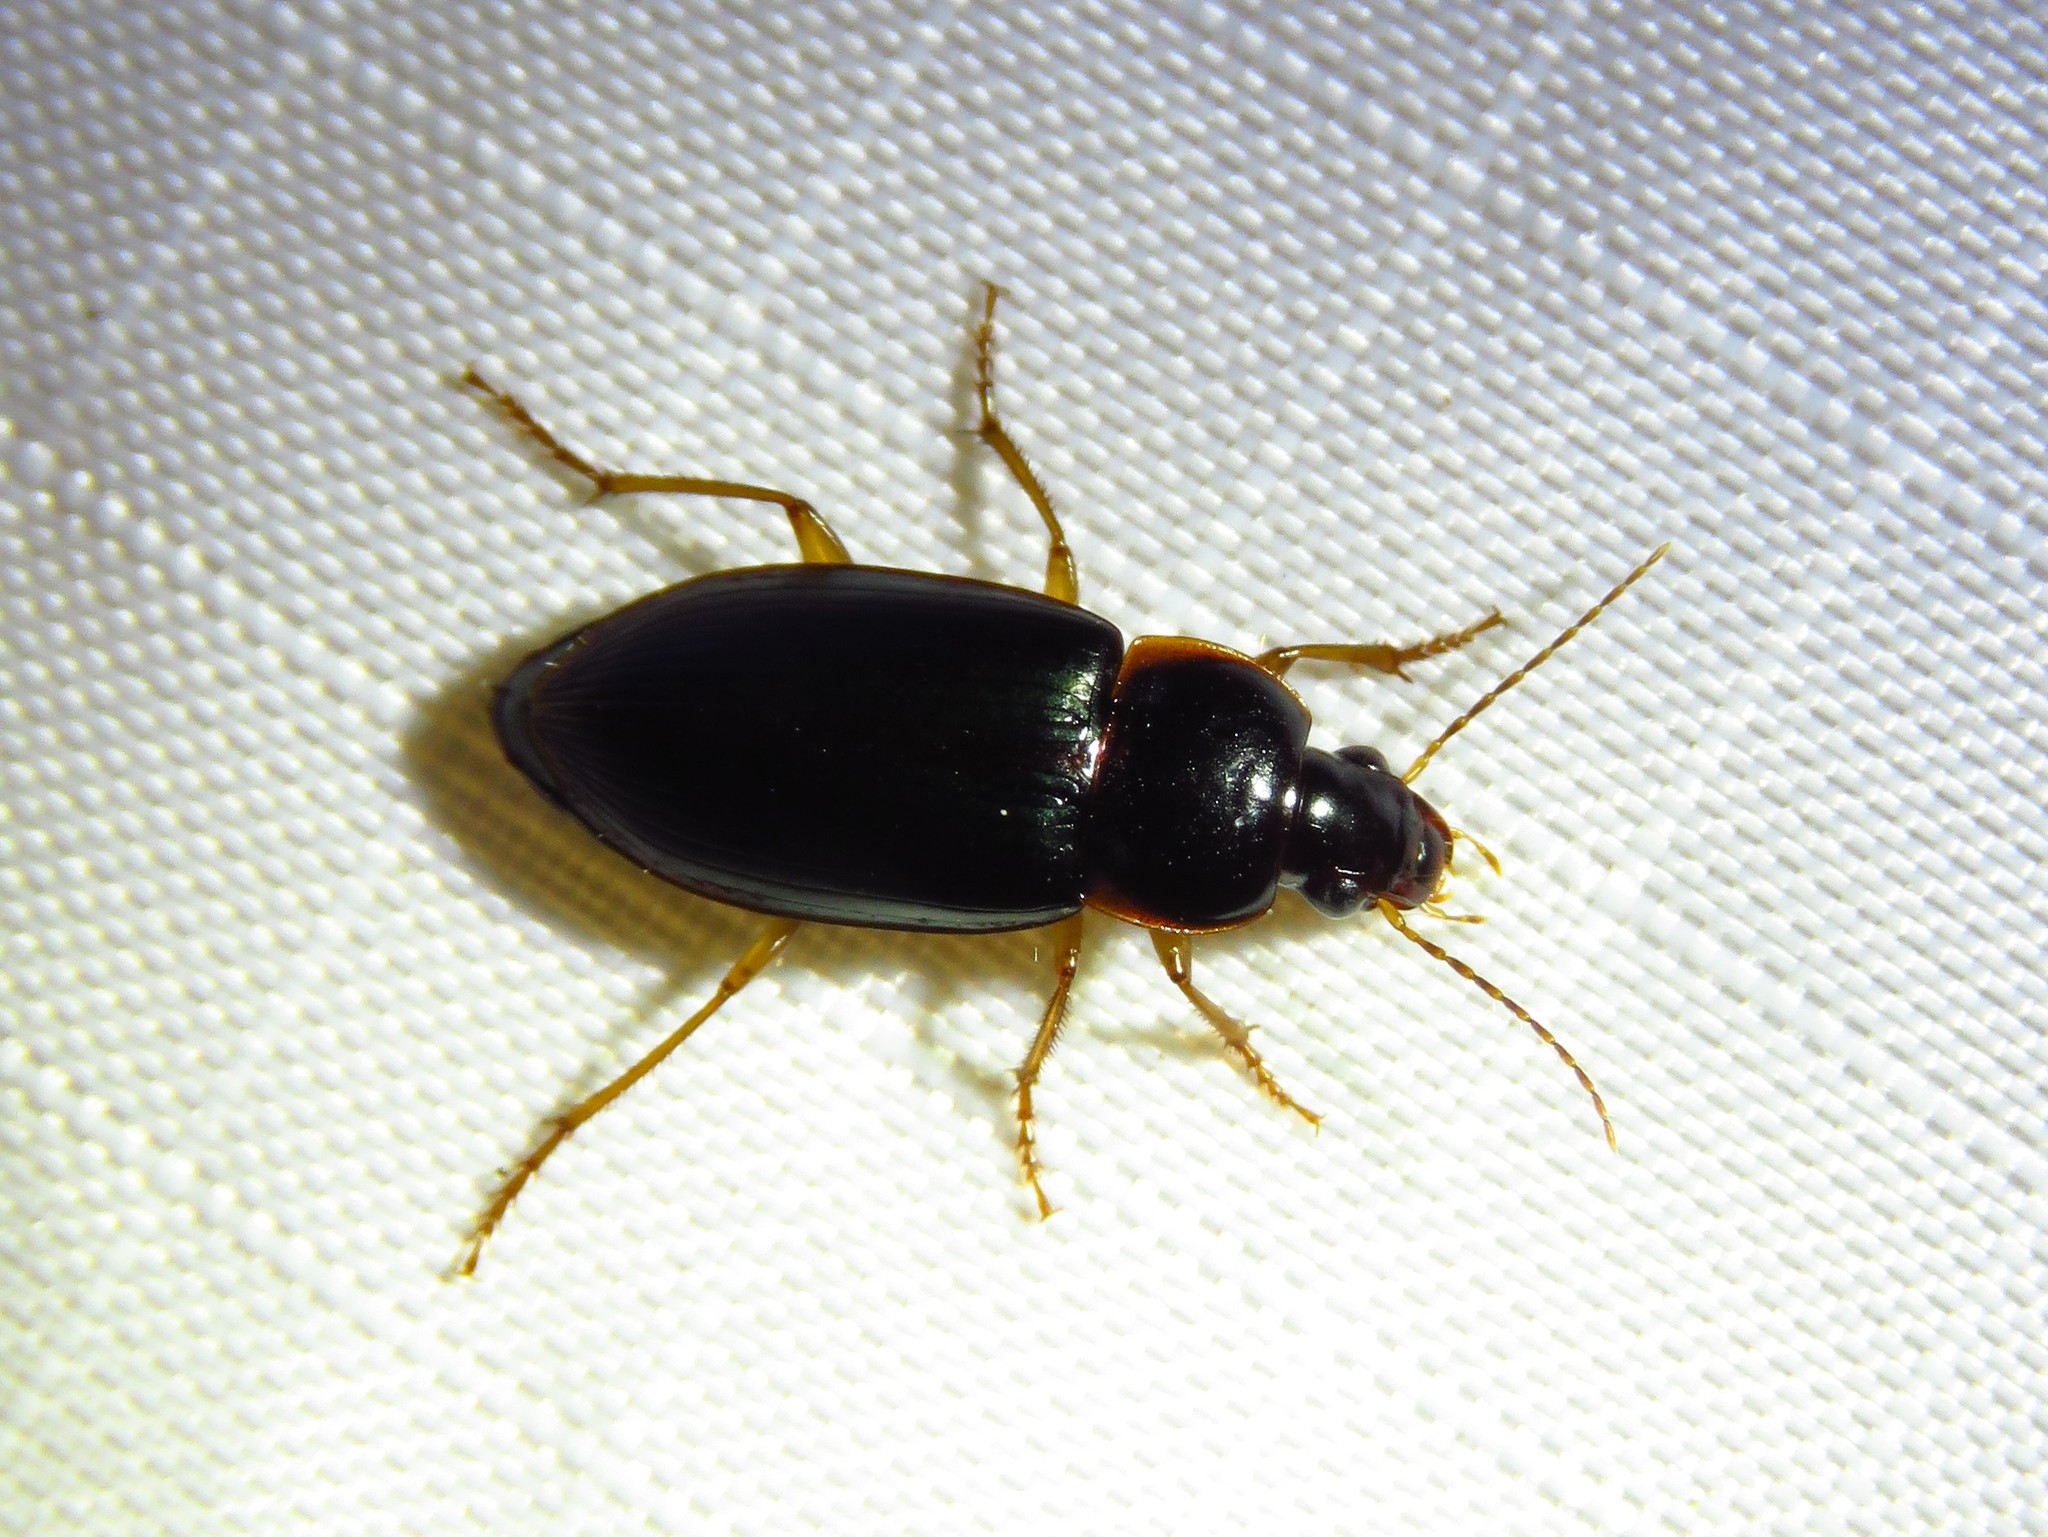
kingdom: Animalia
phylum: Arthropoda
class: Insecta
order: Coleoptera
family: Carabidae
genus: Notiobia
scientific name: Notiobia terminata
